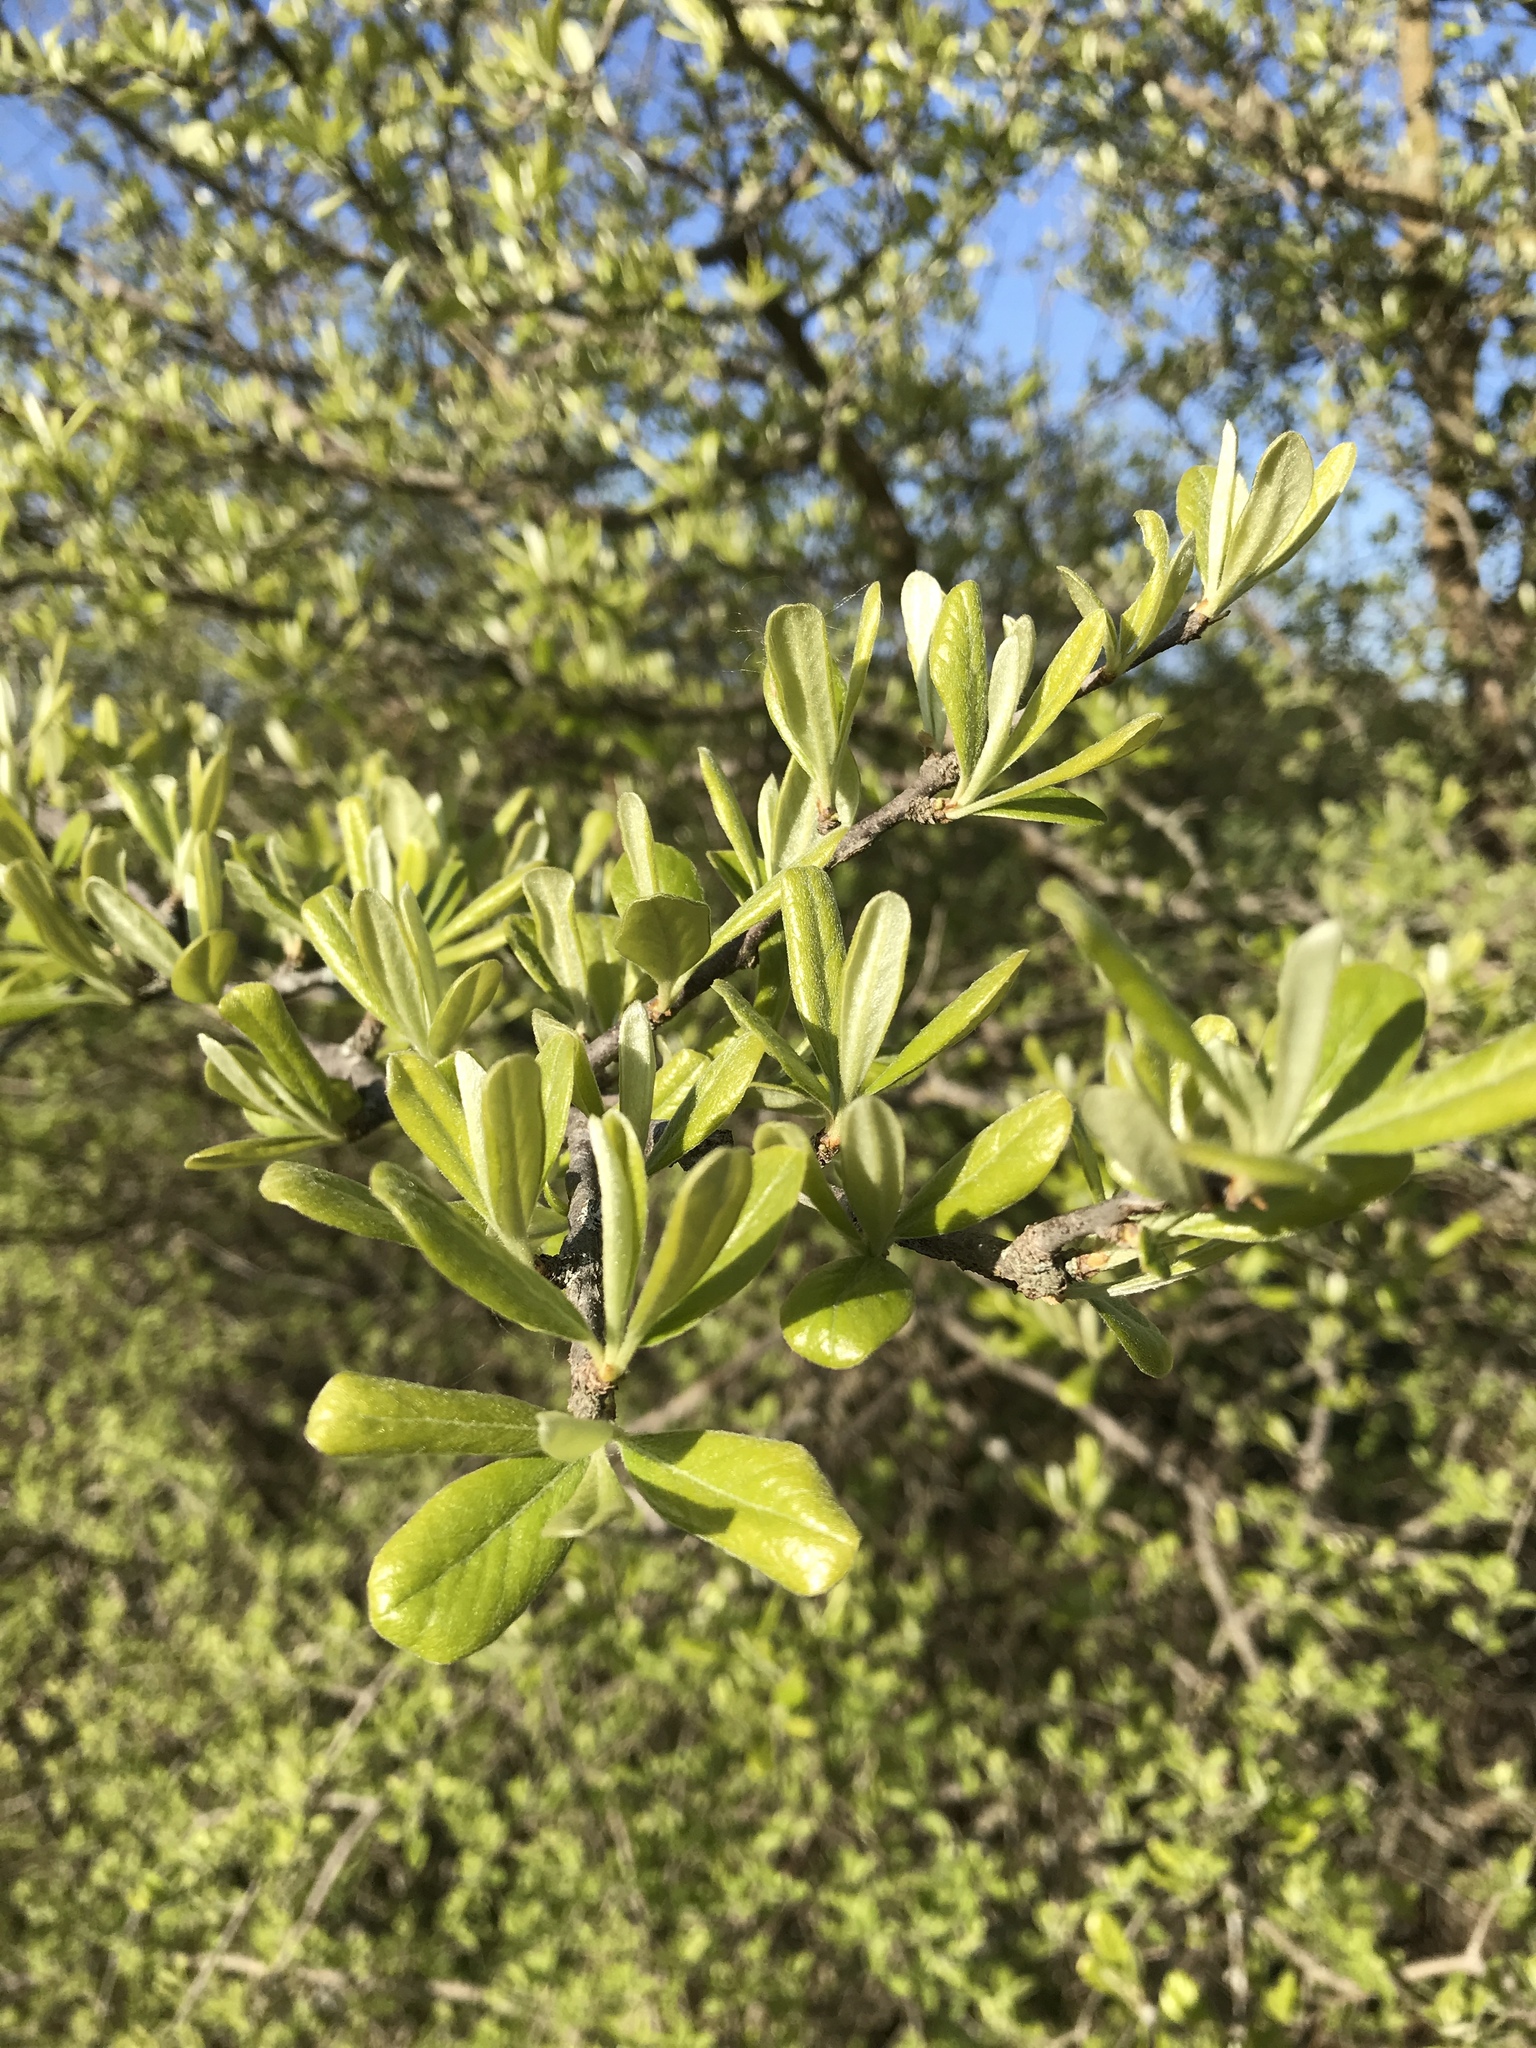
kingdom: Plantae
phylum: Tracheophyta
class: Magnoliopsida
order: Ericales
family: Sapotaceae
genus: Sideroxylon
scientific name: Sideroxylon lanuginosum
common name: Chittamwood
